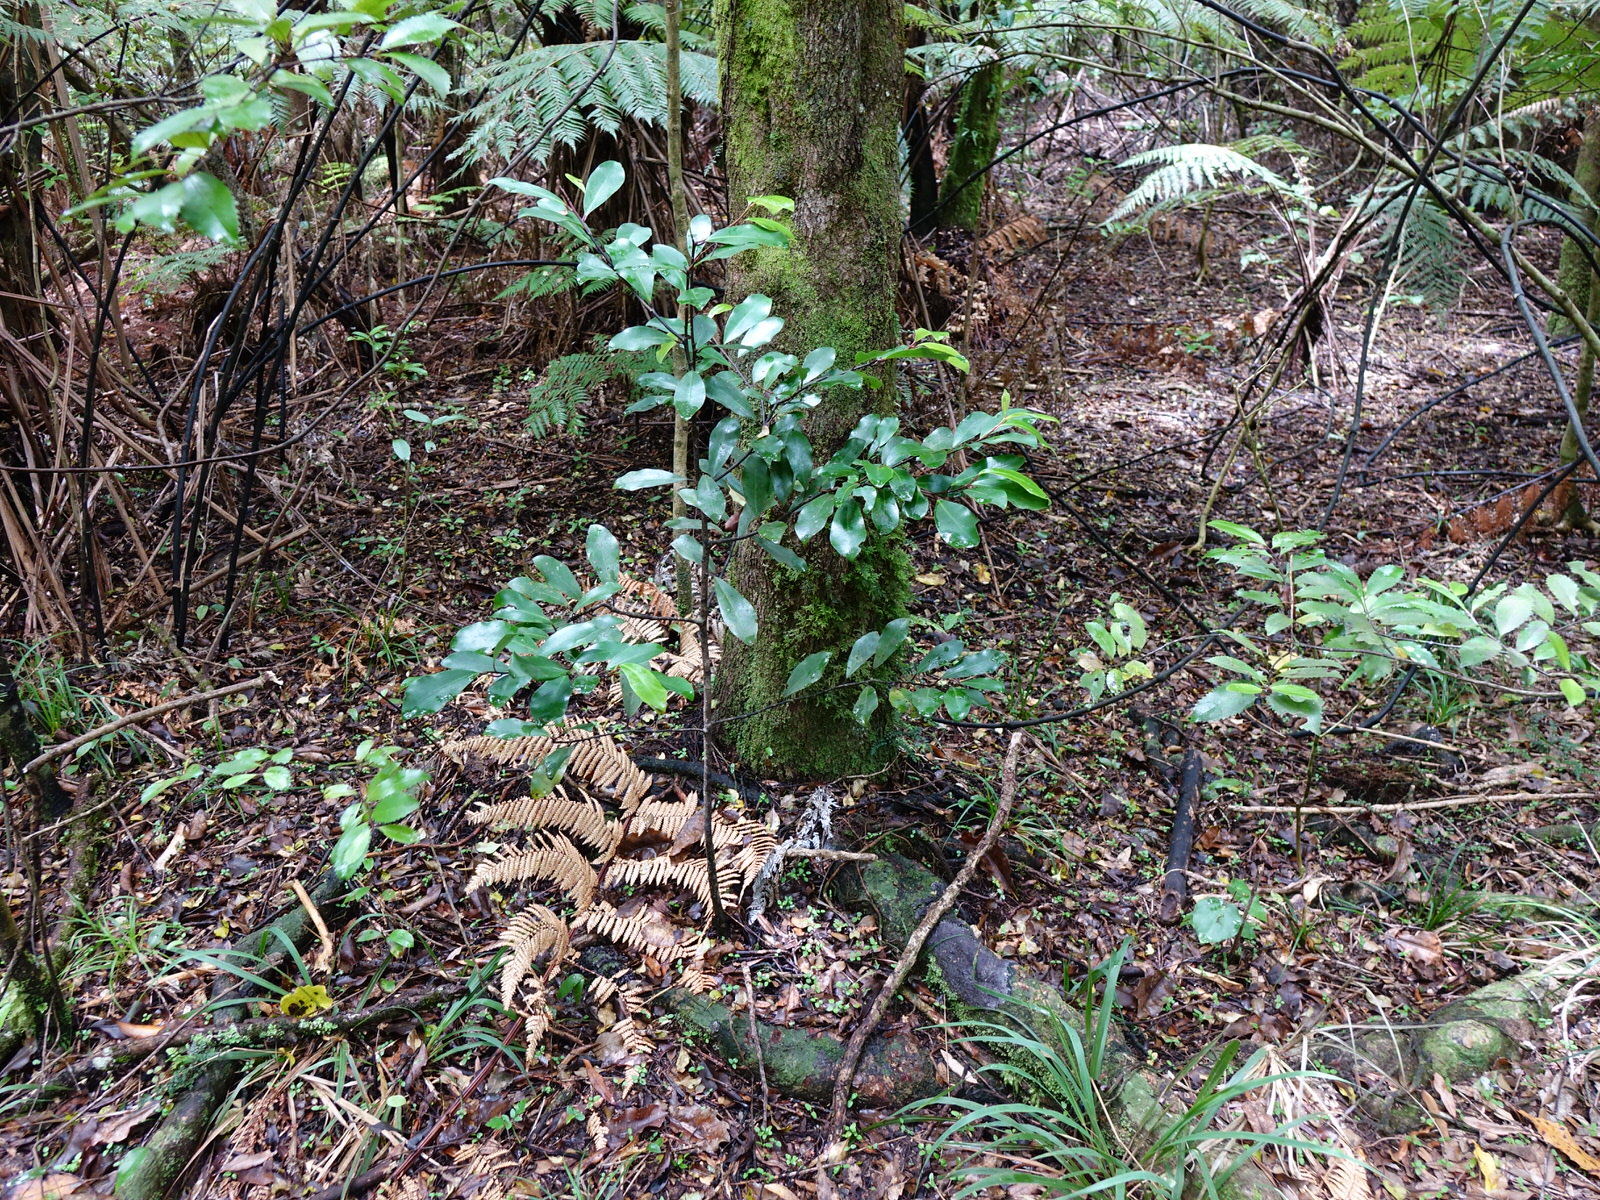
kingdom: Plantae
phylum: Tracheophyta
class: Magnoliopsida
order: Canellales
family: Winteraceae
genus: Pseudowintera
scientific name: Pseudowintera axillaris
